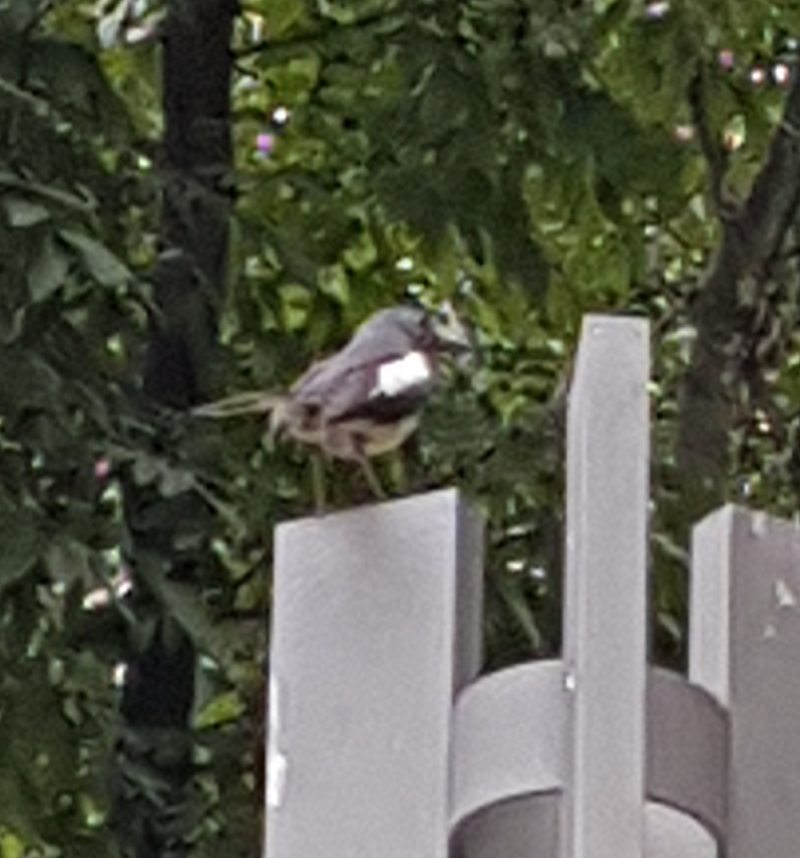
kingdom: Animalia
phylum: Chordata
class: Aves
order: Passeriformes
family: Muscicapidae
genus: Copsychus
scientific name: Copsychus saularis
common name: Oriental magpie-robin
